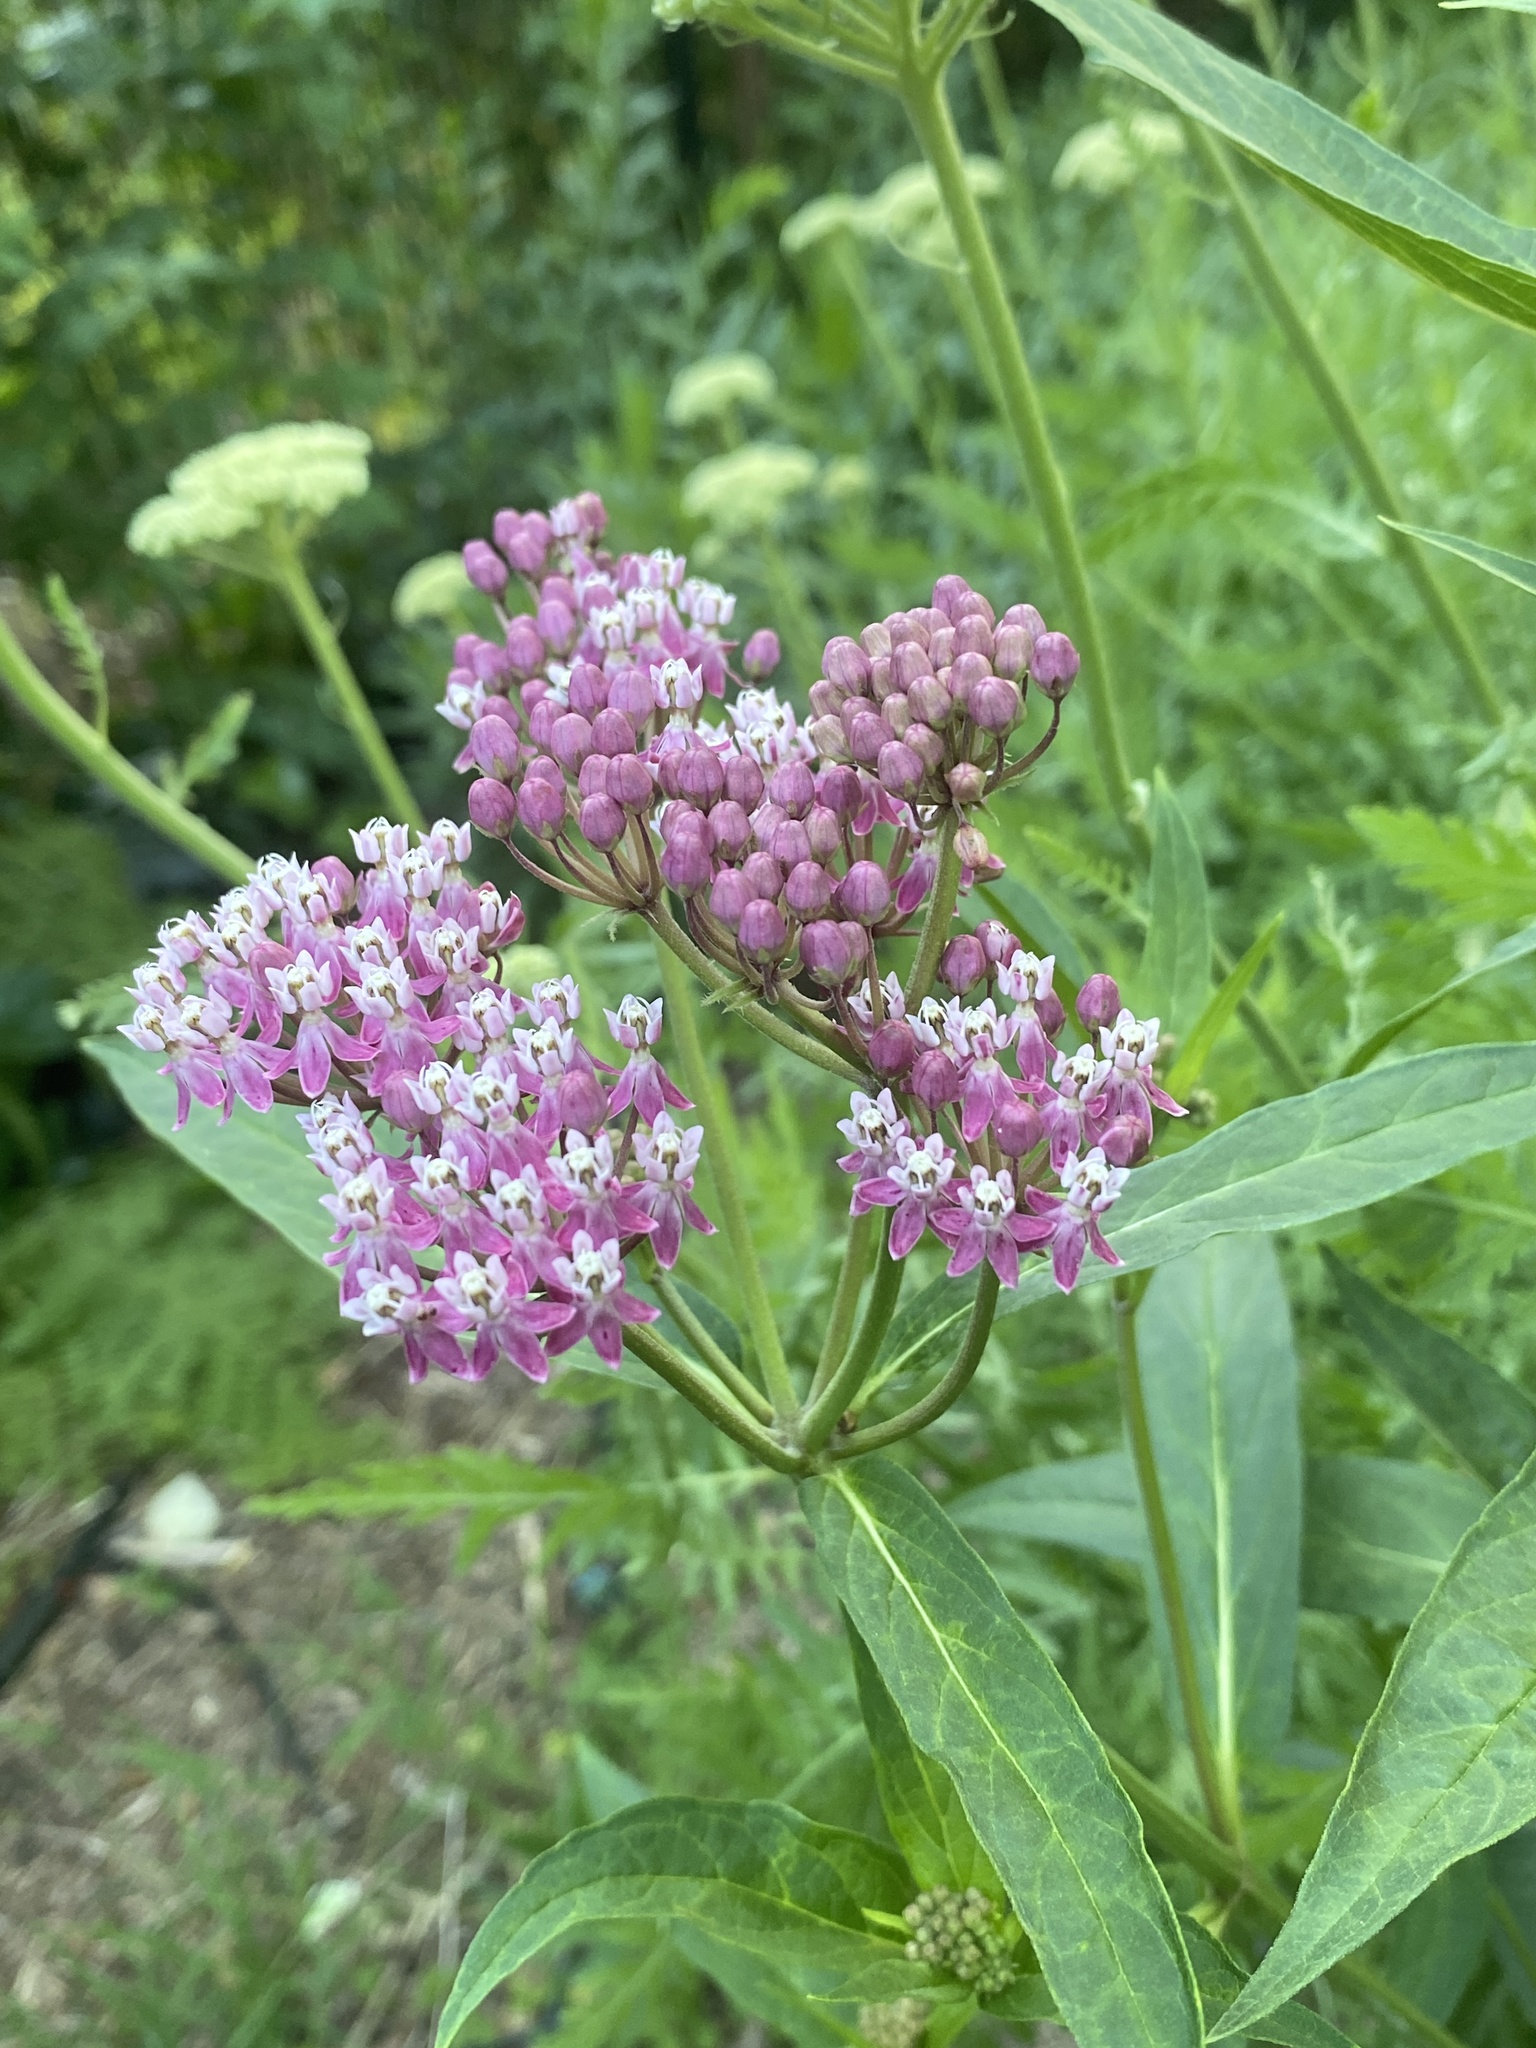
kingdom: Plantae
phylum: Tracheophyta
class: Magnoliopsida
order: Gentianales
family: Apocynaceae
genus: Asclepias
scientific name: Asclepias incarnata
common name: Swamp milkweed
